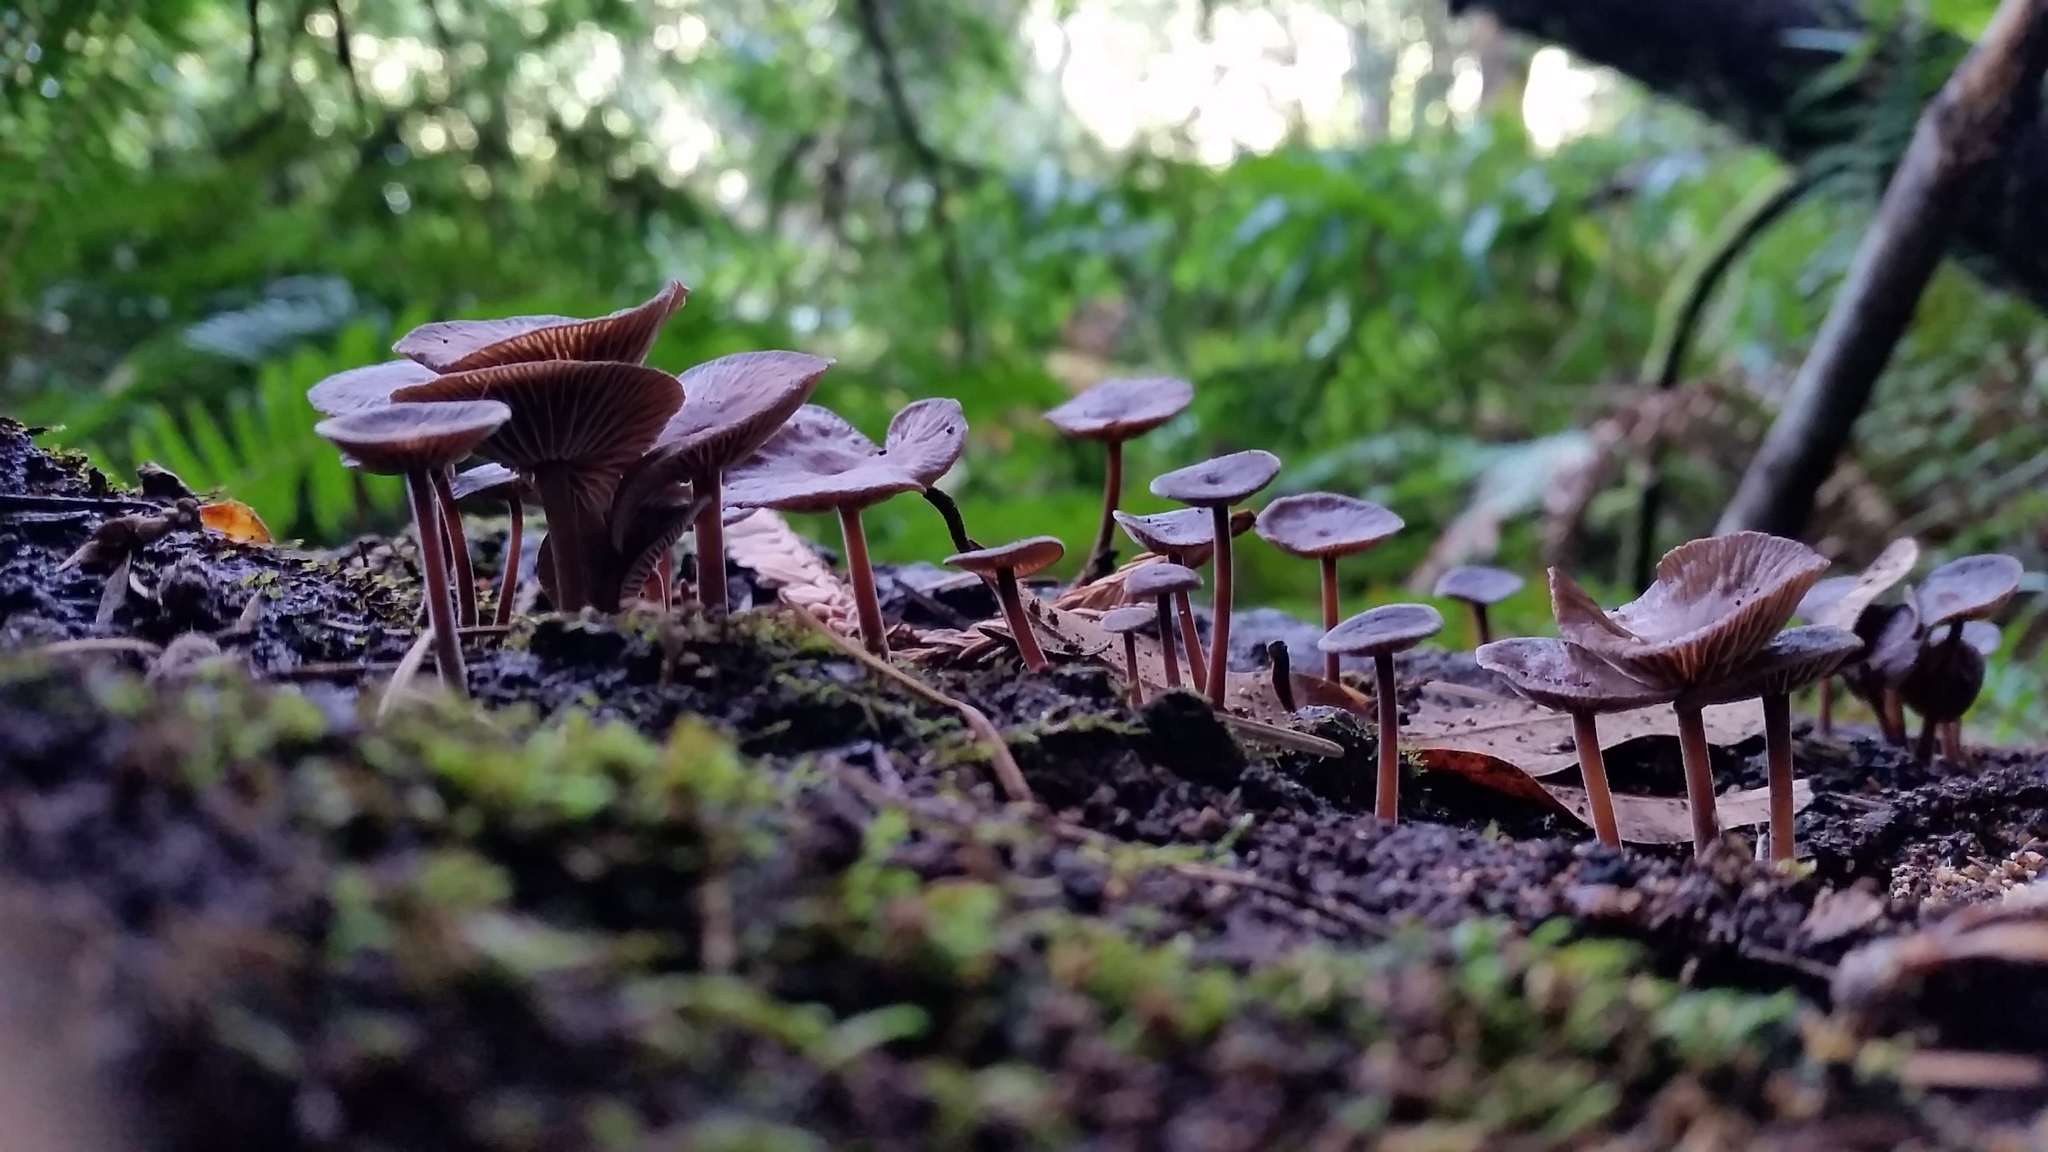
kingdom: Fungi
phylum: Basidiomycota
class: Agaricomycetes
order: Agaricales
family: Omphalotaceae
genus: Collybiopsis
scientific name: Collybiopsis villosipes
